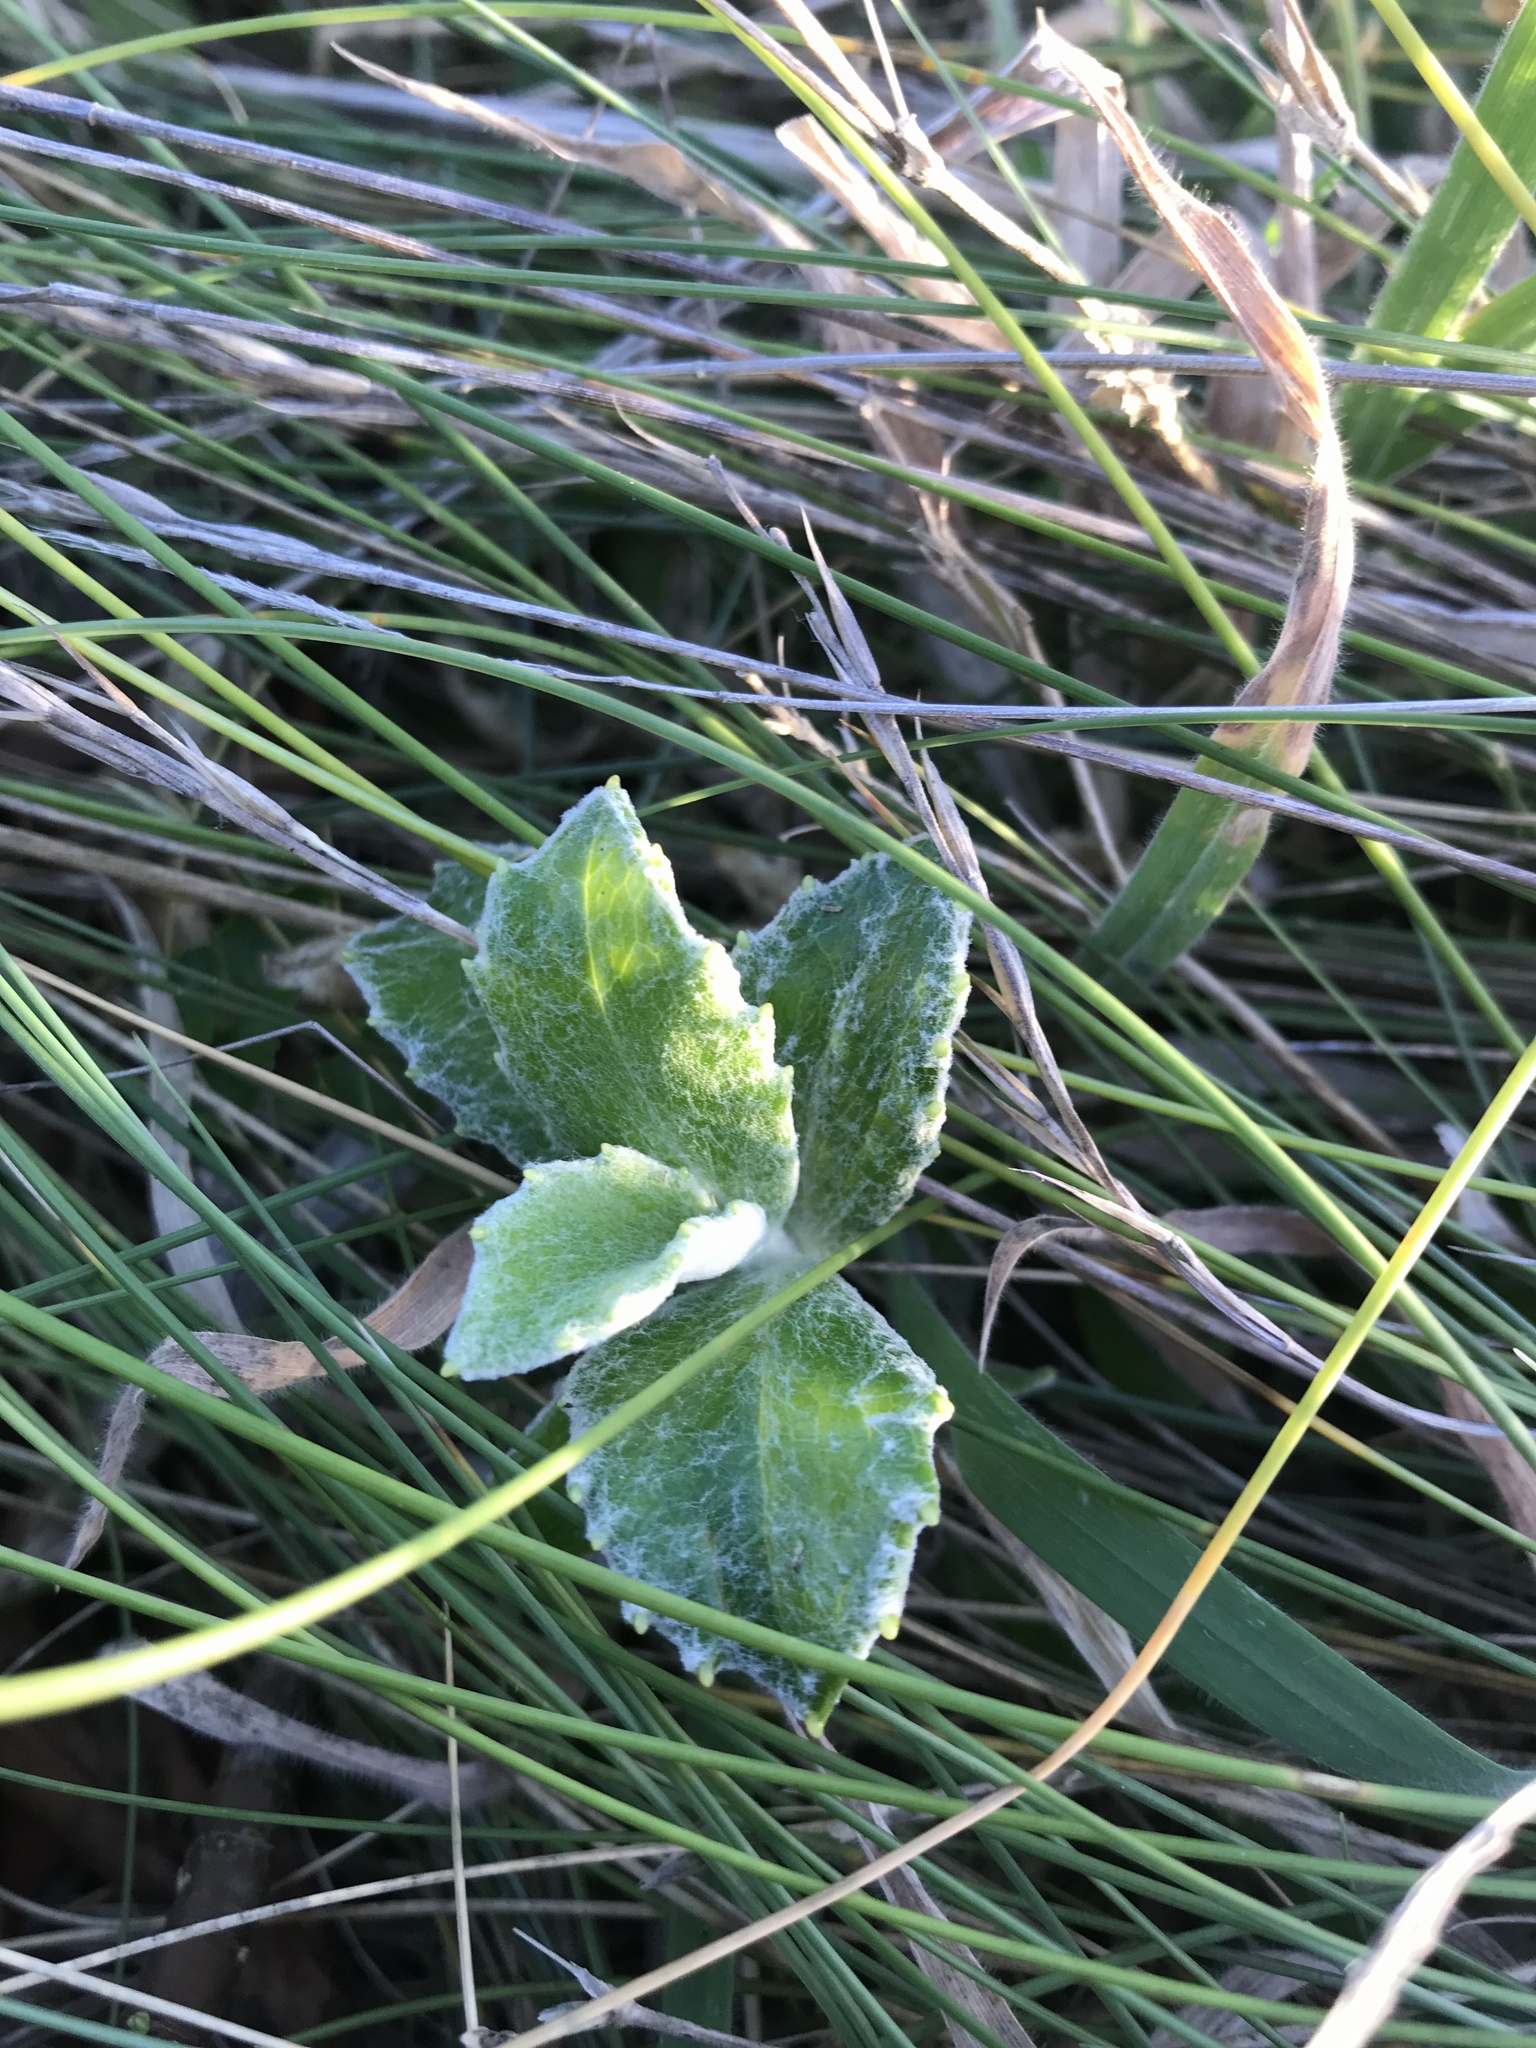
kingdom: Plantae
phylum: Tracheophyta
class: Magnoliopsida
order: Asterales
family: Asteraceae
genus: Macrolearia
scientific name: Macrolearia chathamica
